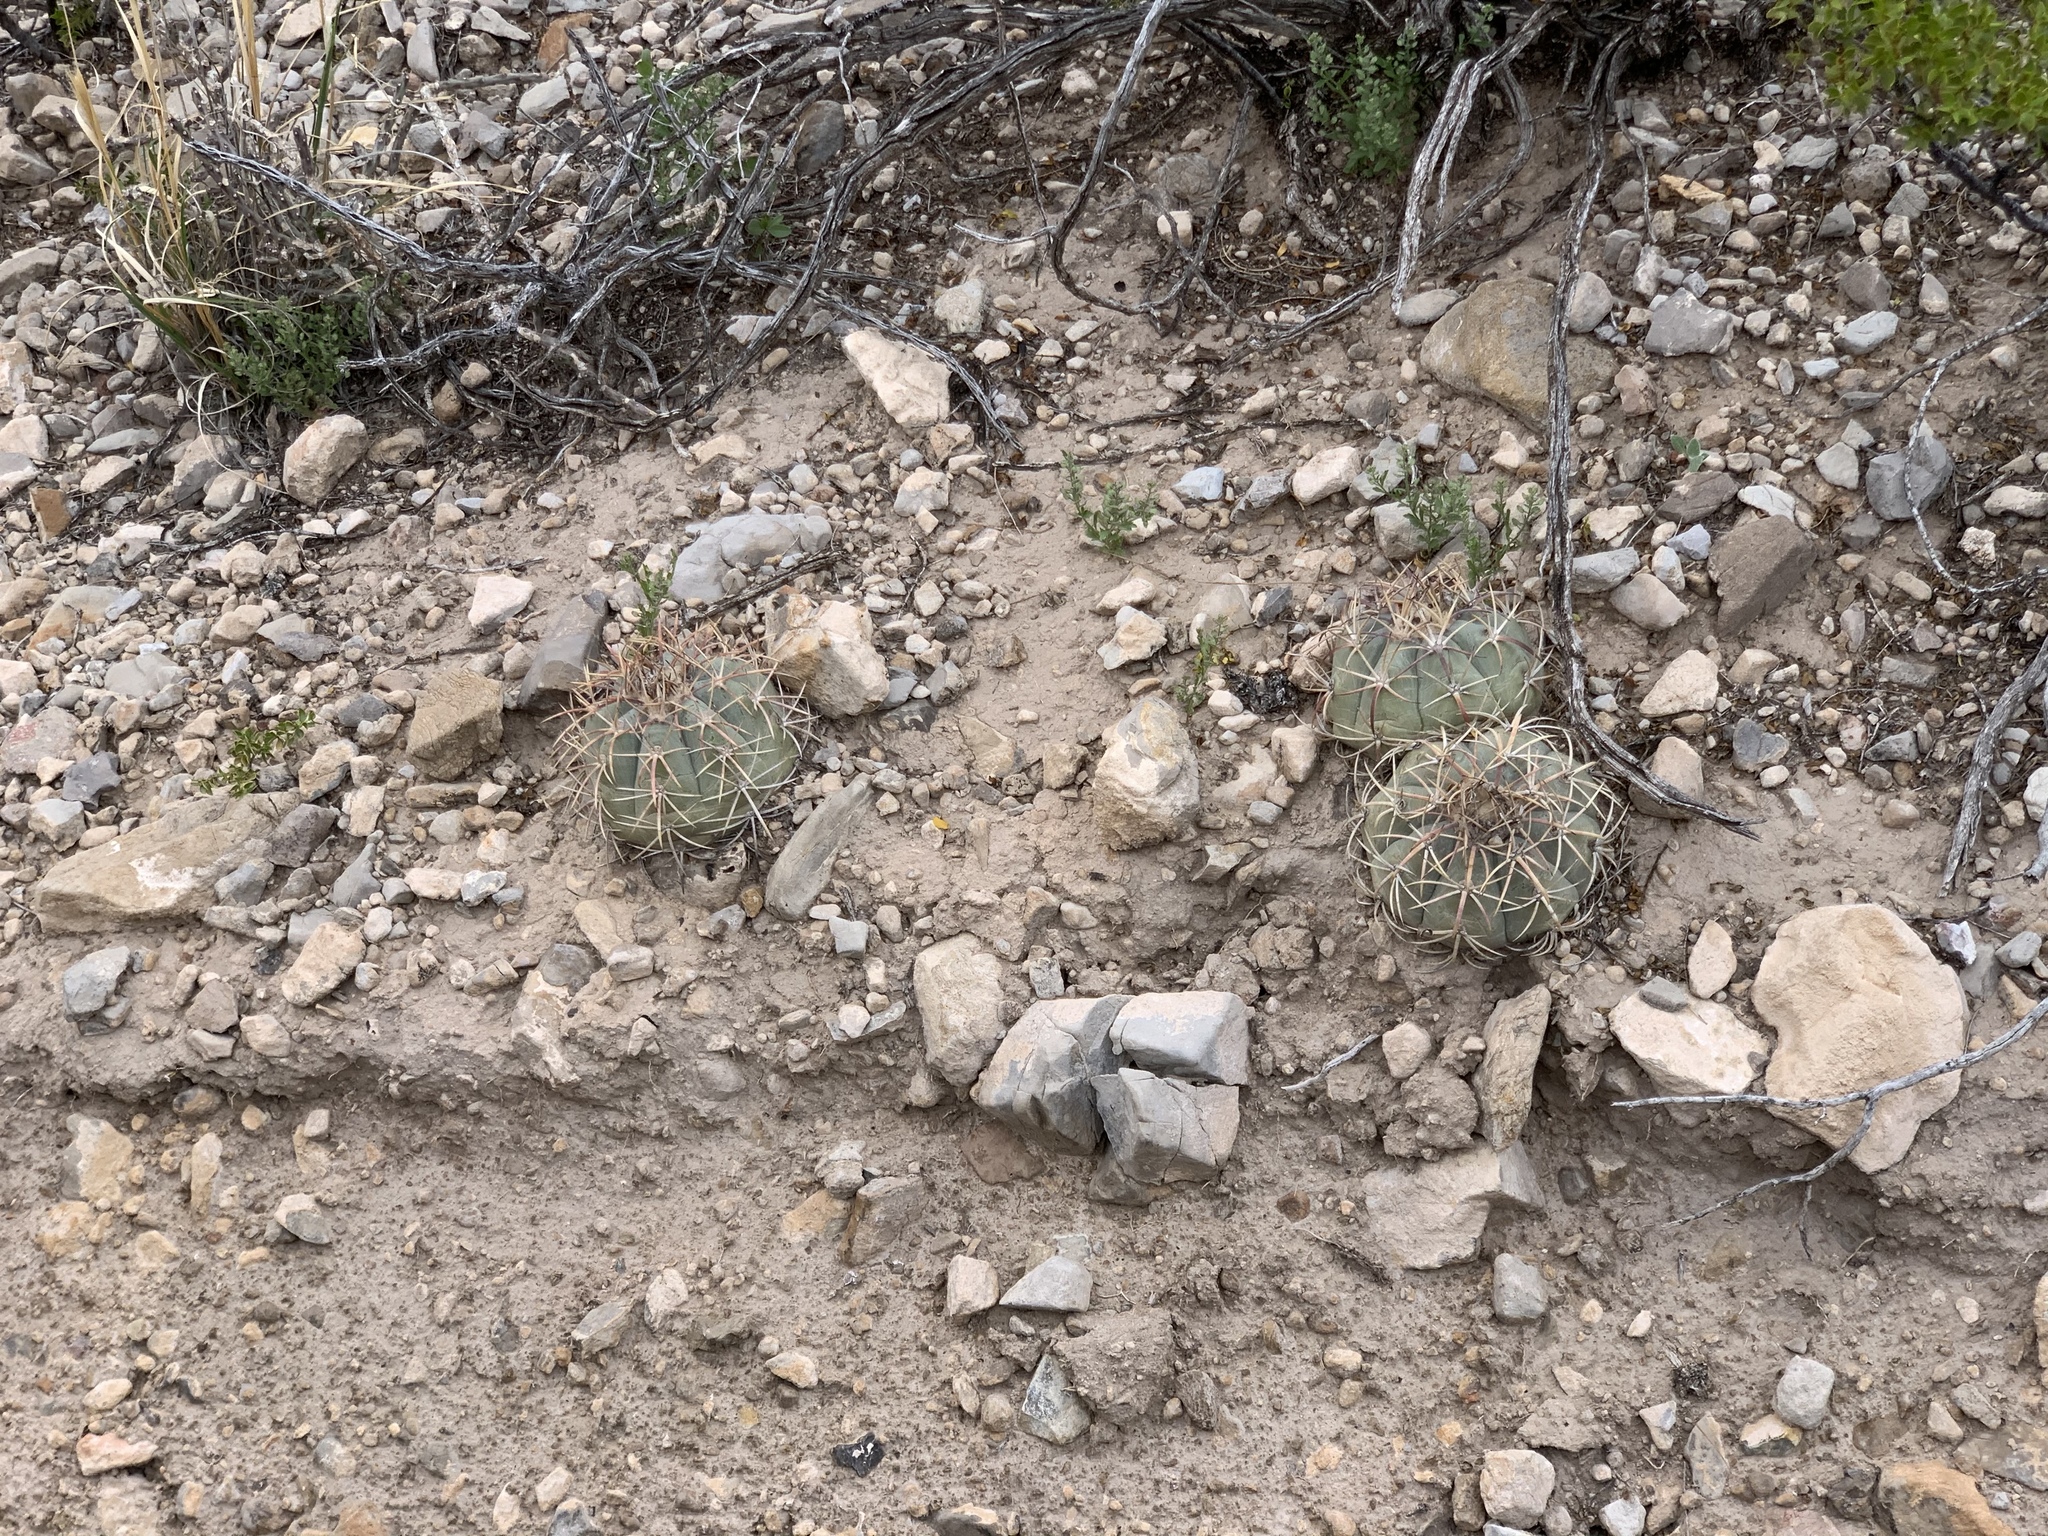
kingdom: Plantae
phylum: Tracheophyta
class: Magnoliopsida
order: Caryophyllales
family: Cactaceae
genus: Echinocactus
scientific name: Echinocactus horizonthalonius
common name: Devilshead
